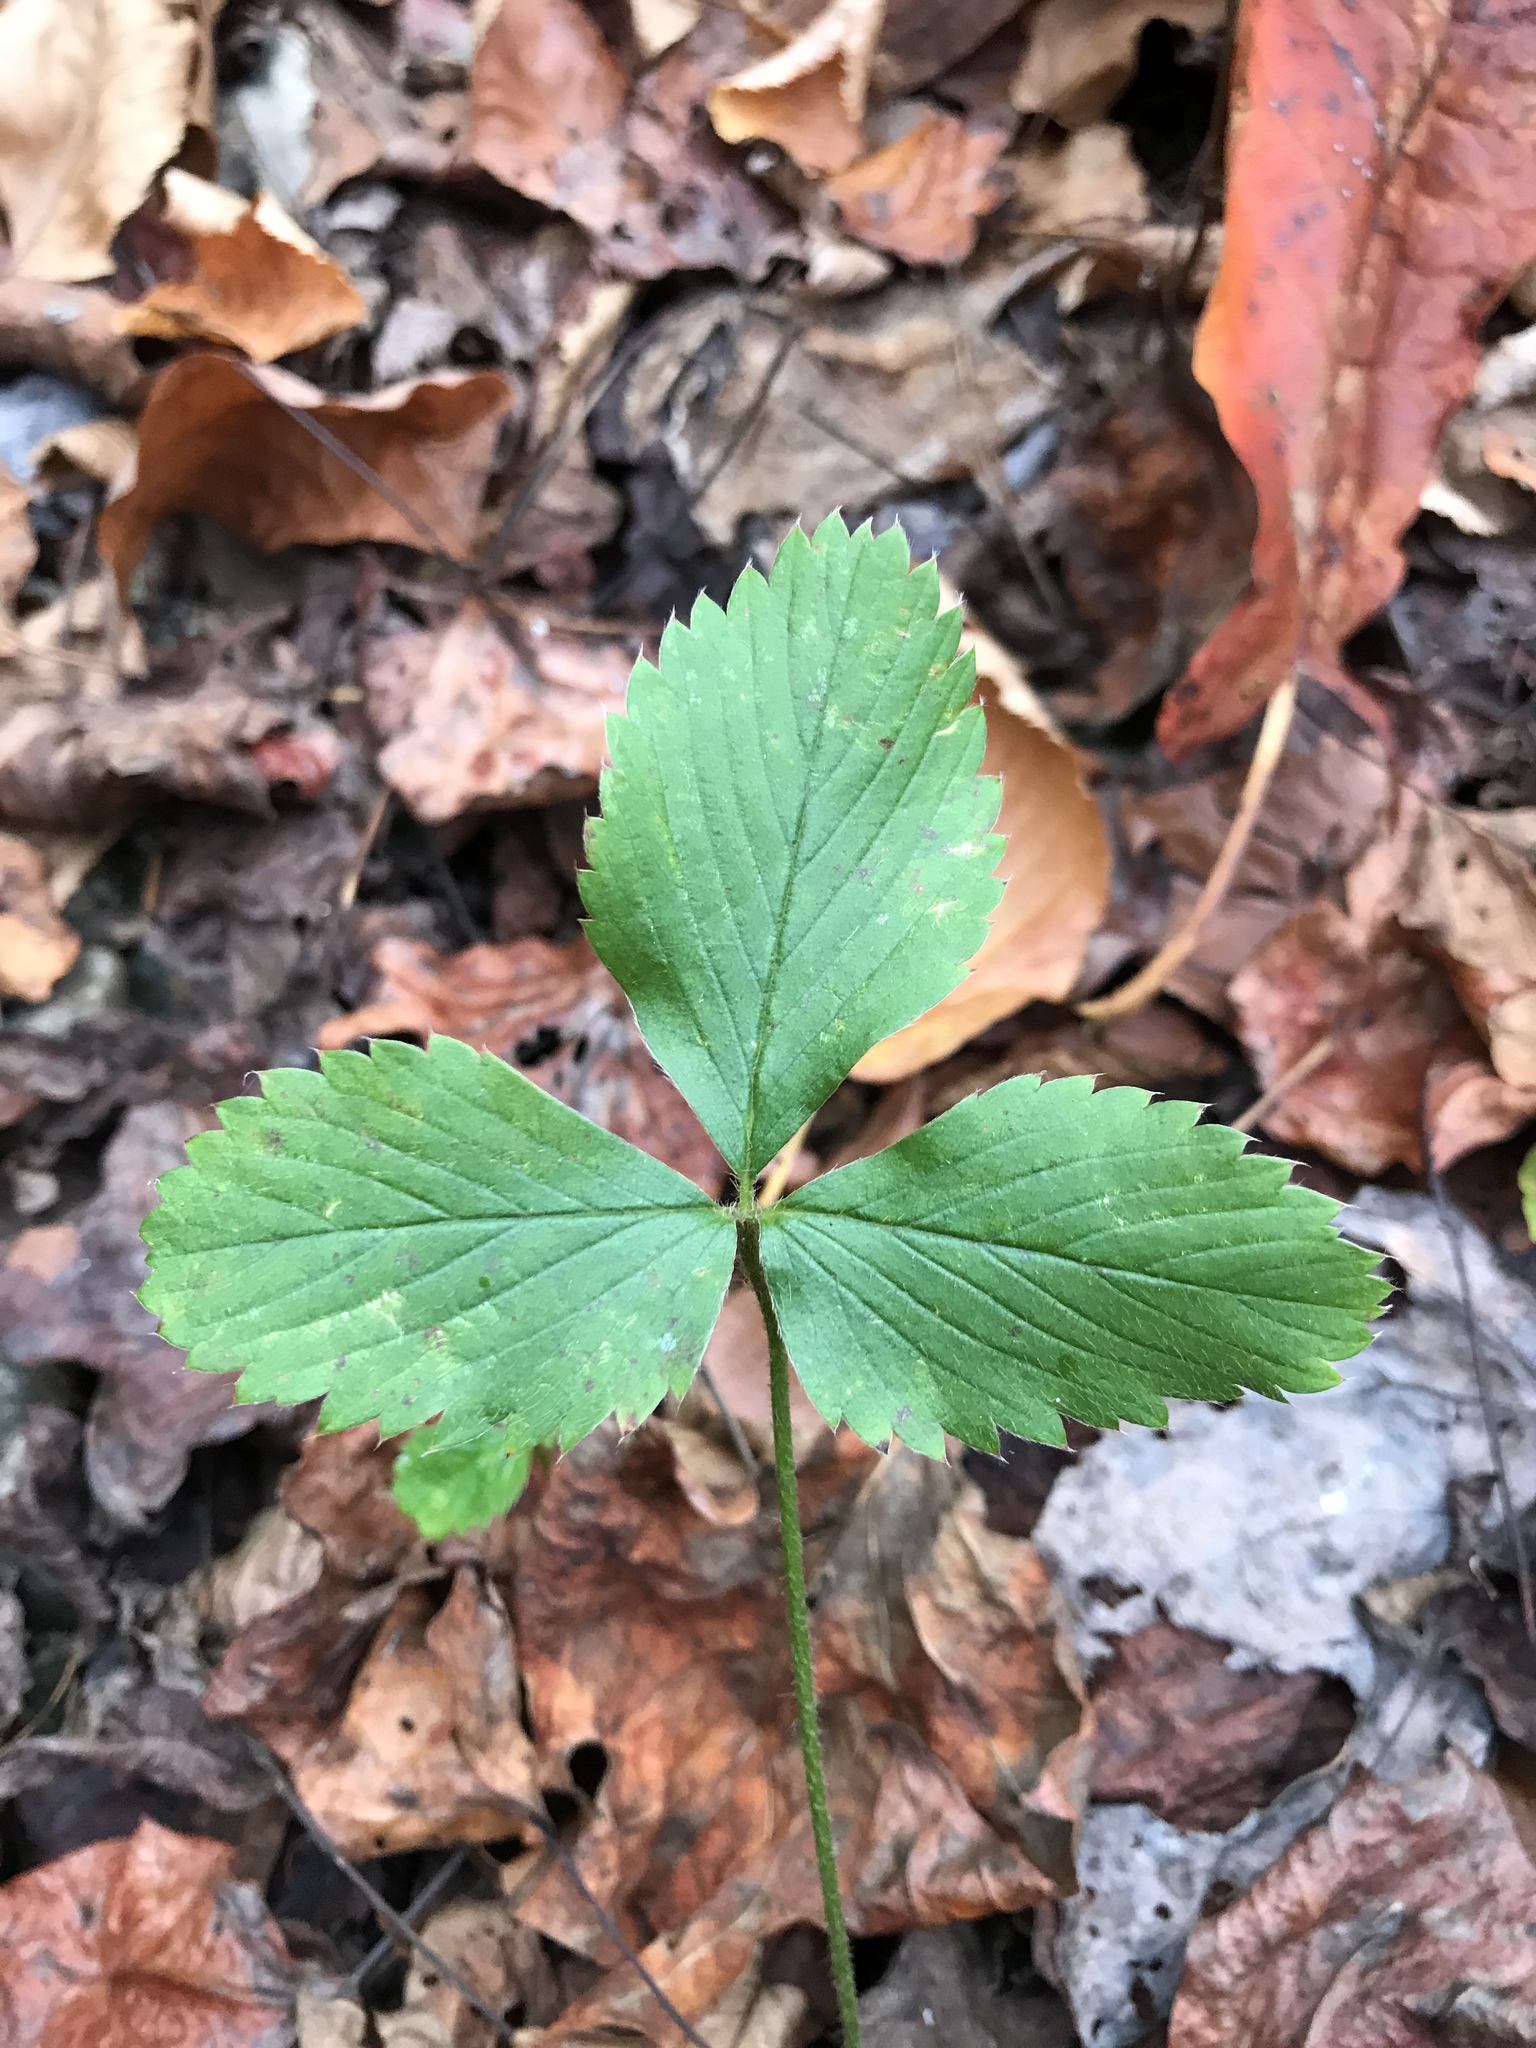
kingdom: Plantae
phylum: Tracheophyta
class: Magnoliopsida
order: Rosales
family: Rosaceae
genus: Fragaria
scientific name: Fragaria virginiana
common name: Thickleaved wild strawberry
